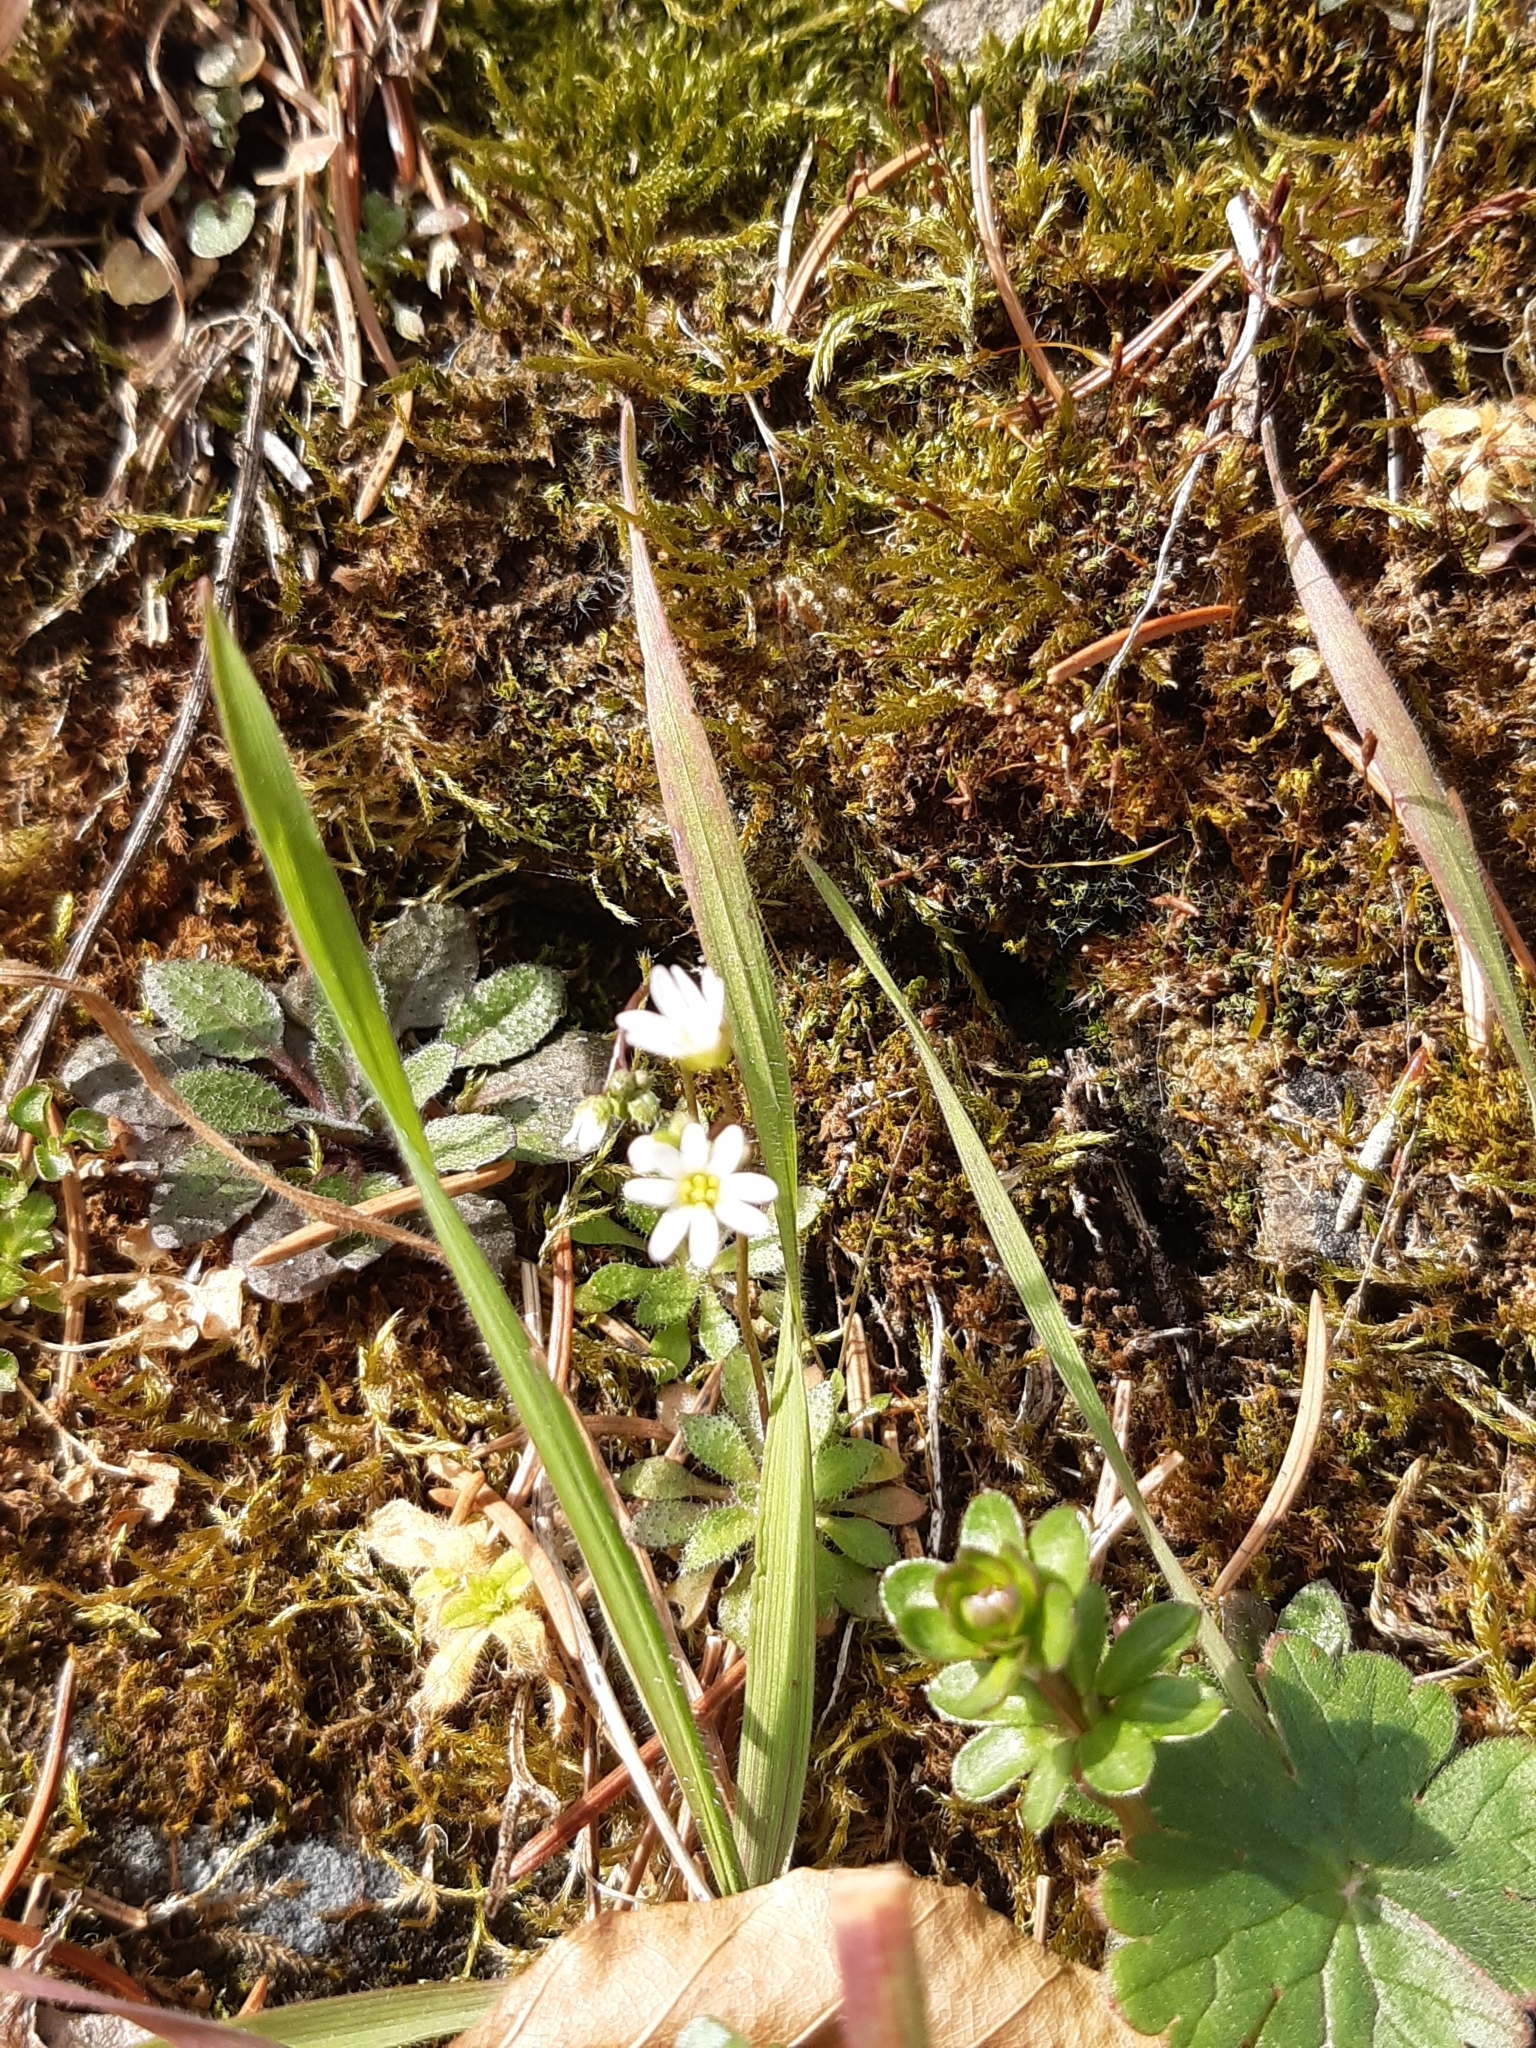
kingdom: Plantae
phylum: Tracheophyta
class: Magnoliopsida
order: Brassicales
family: Brassicaceae
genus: Draba
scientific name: Draba verna
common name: Spring draba
